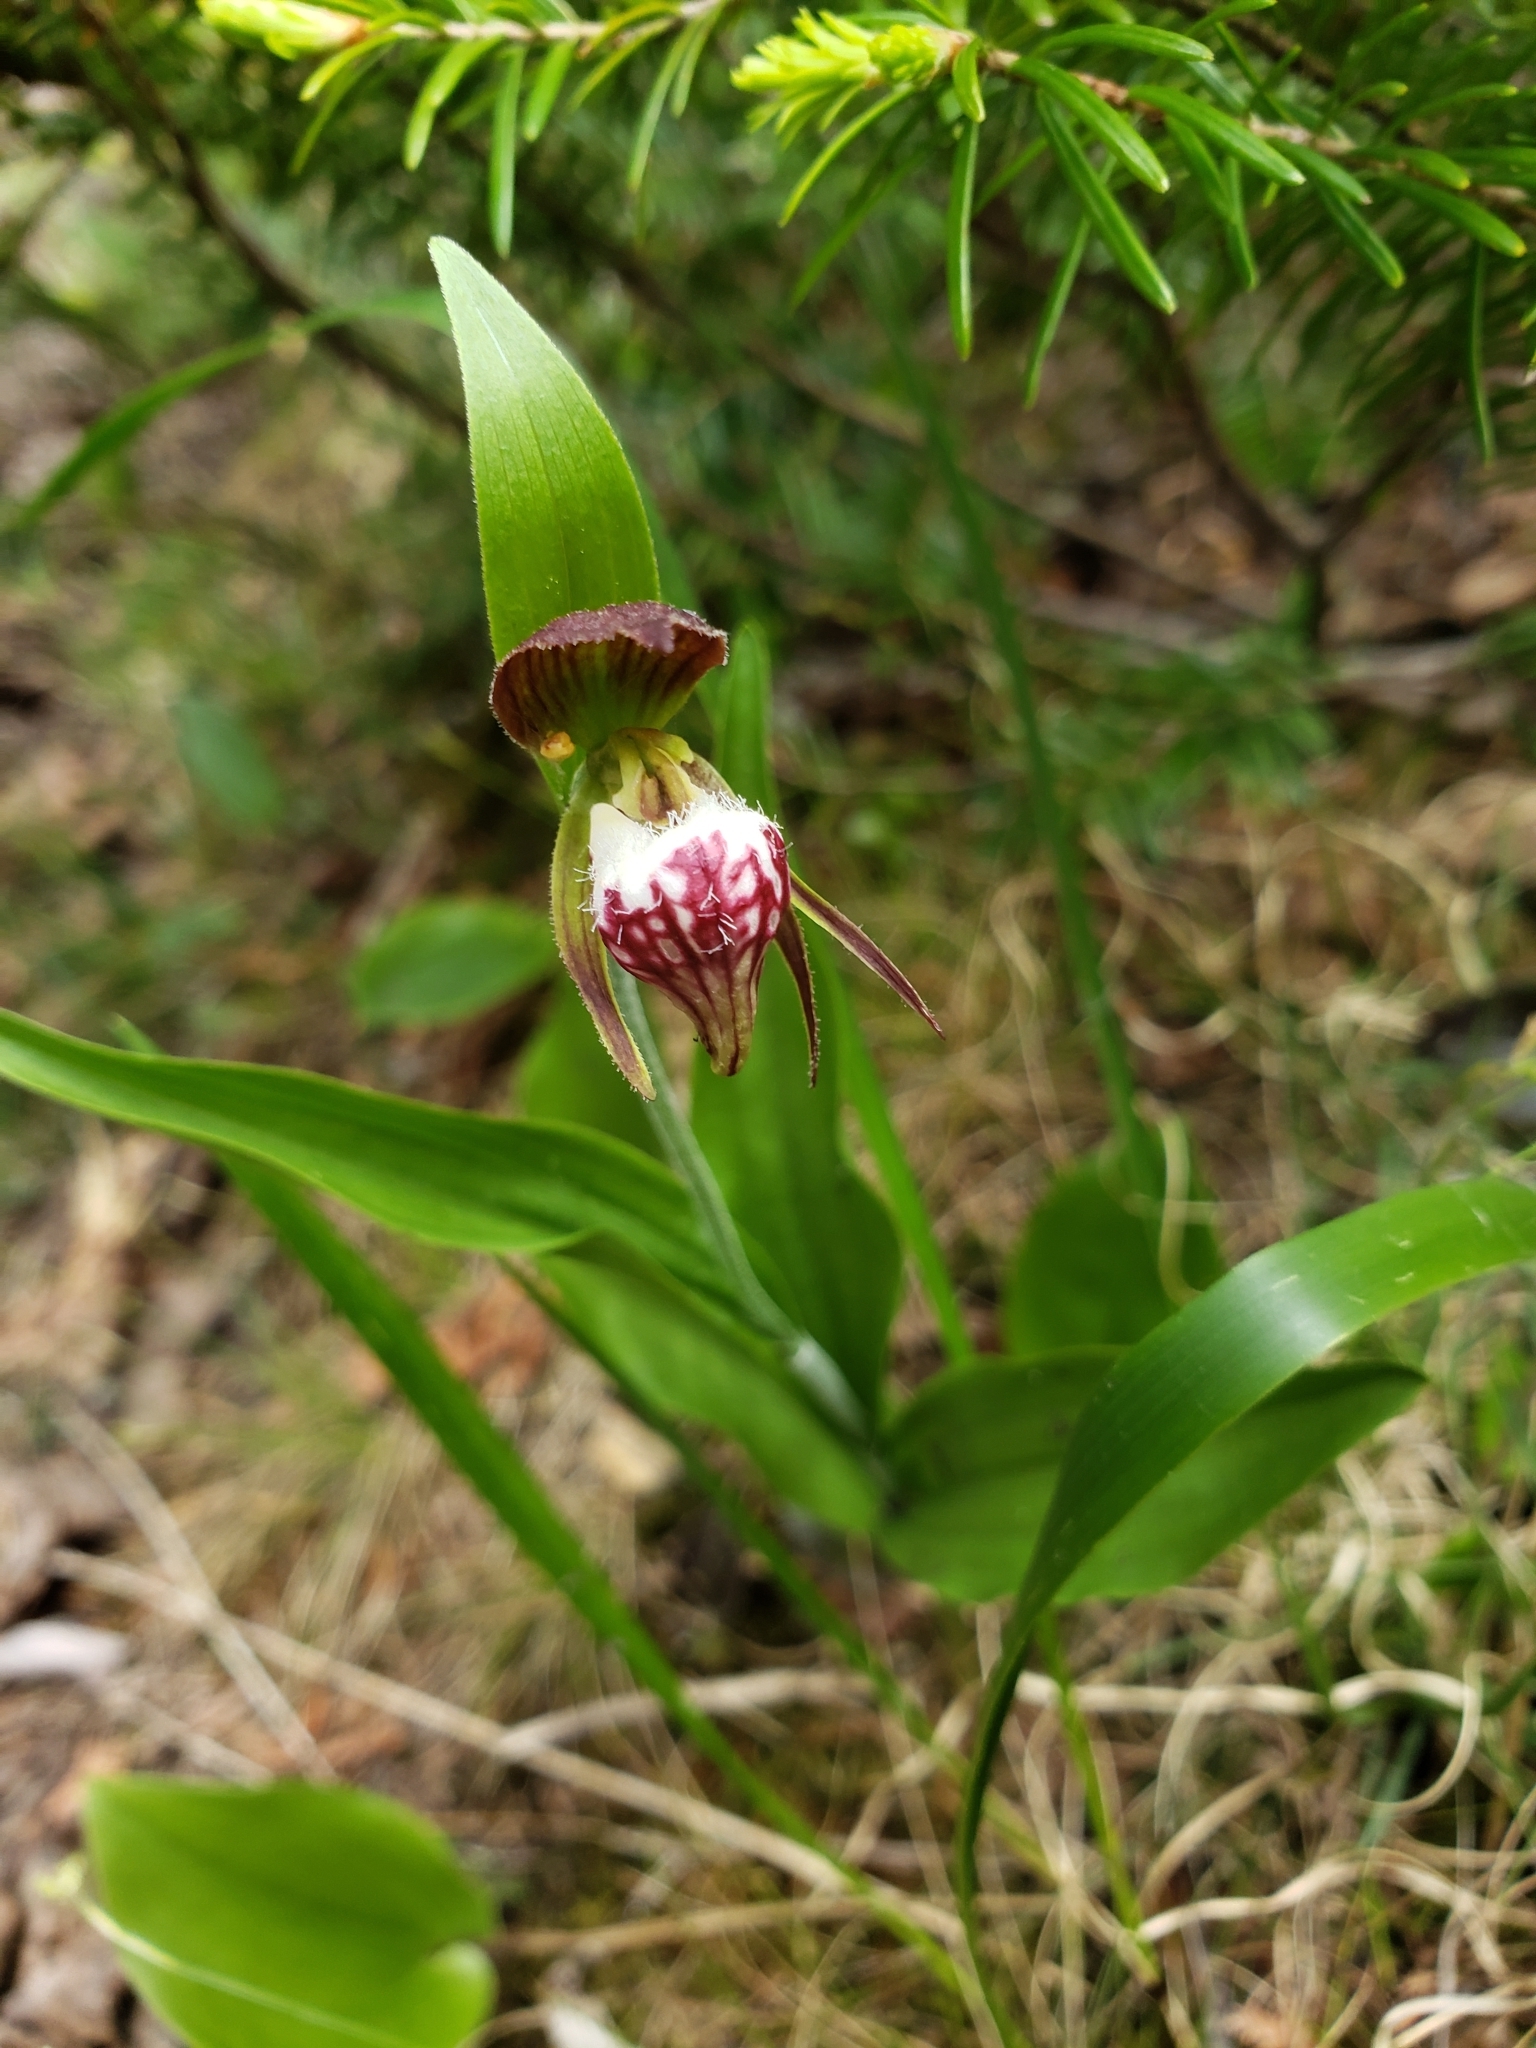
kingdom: Plantae
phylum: Tracheophyta
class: Liliopsida
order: Asparagales
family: Orchidaceae
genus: Cypripedium
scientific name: Cypripedium arietinum
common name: Ram's-head
